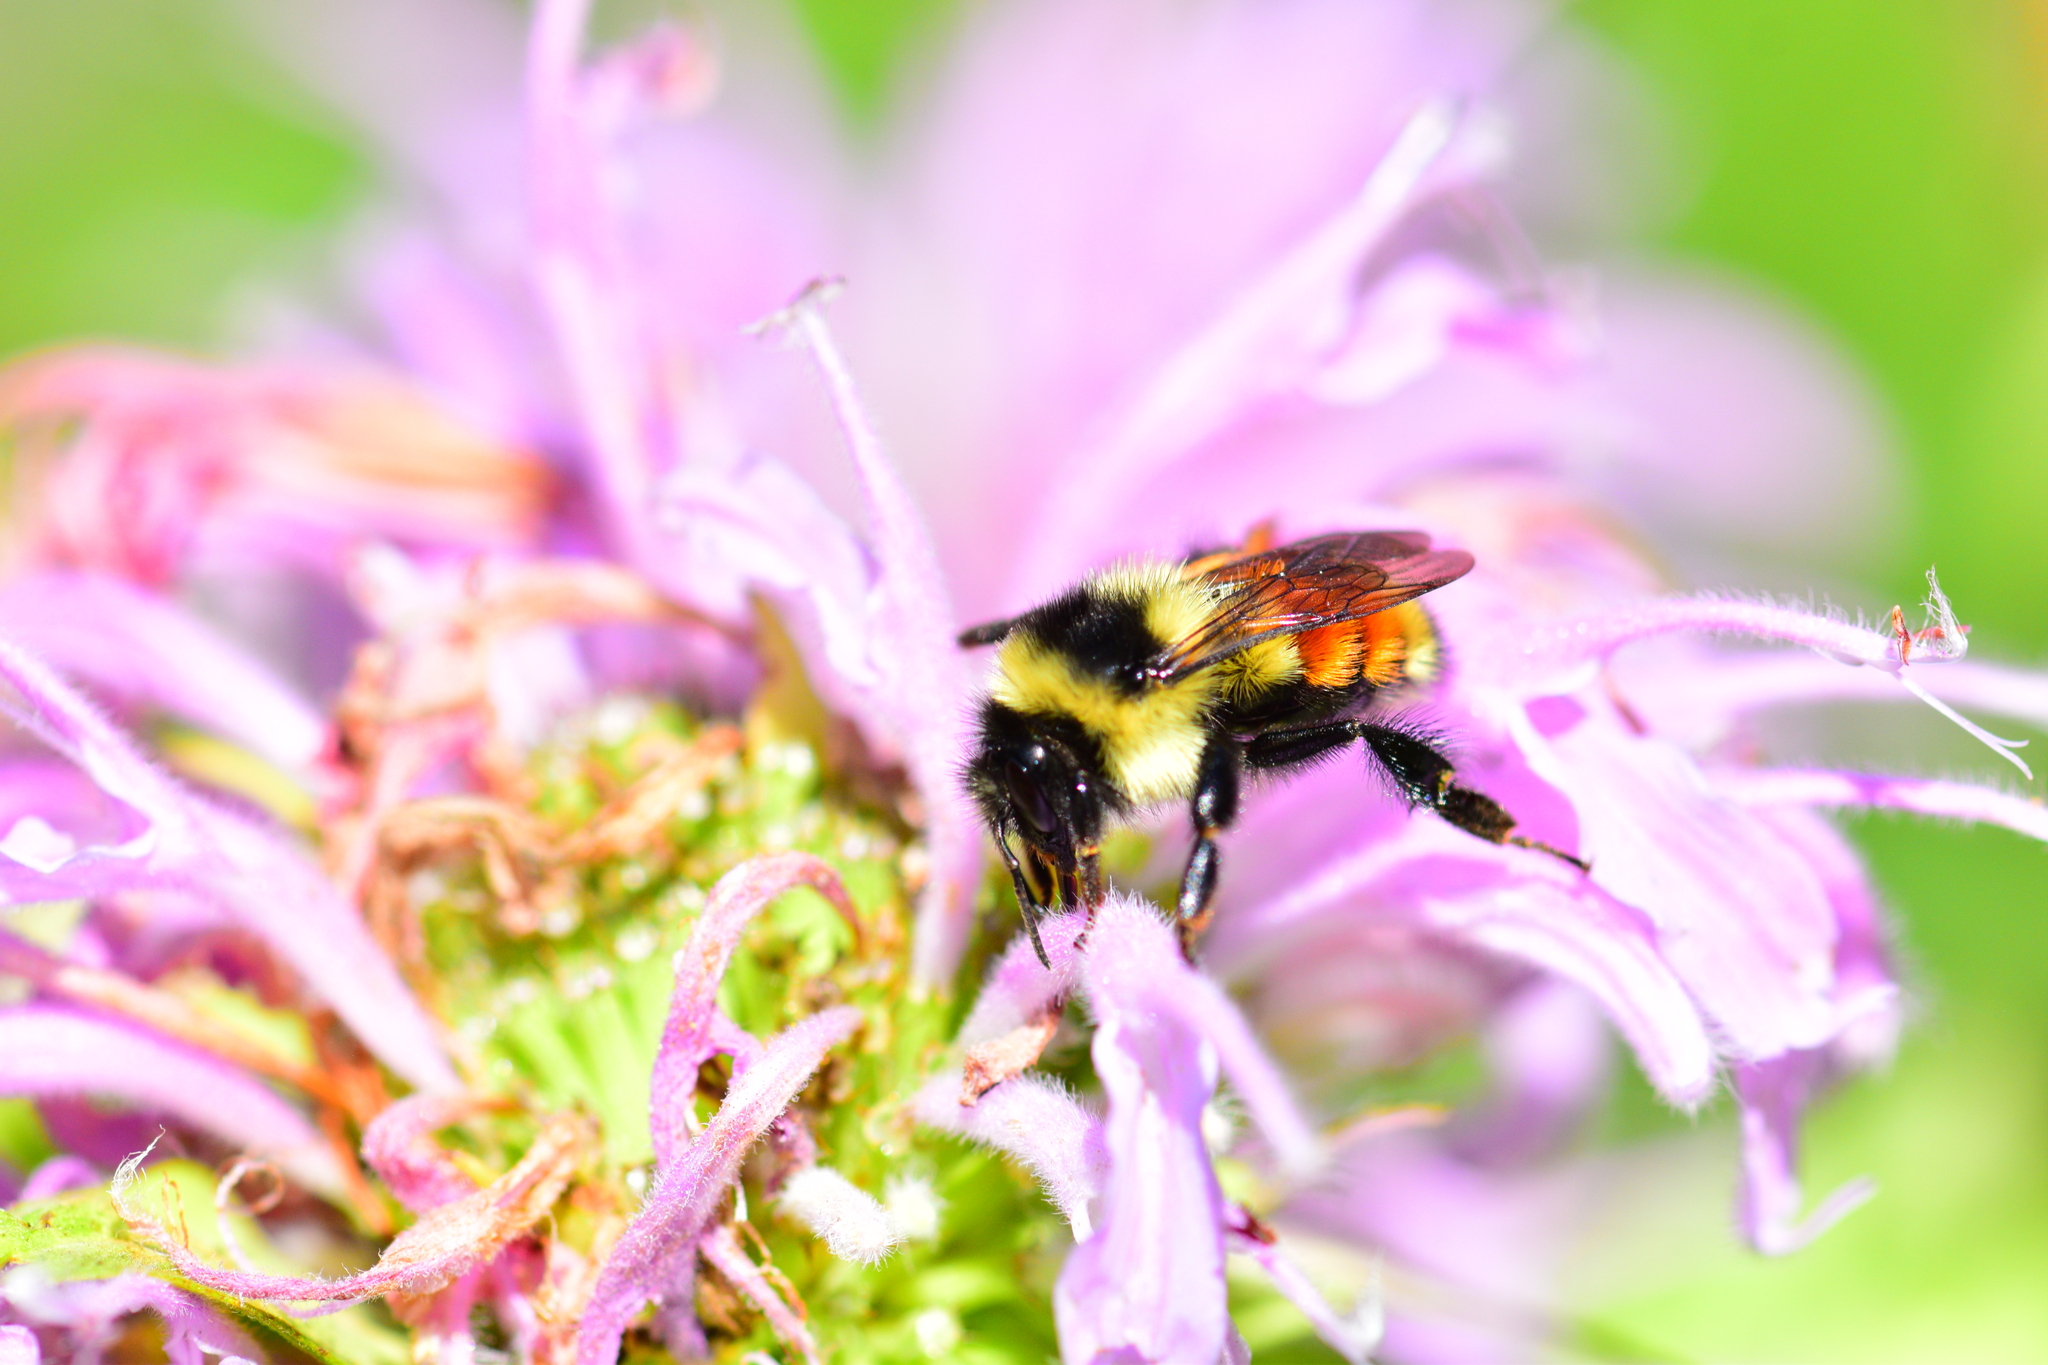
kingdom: Animalia
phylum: Arthropoda
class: Insecta
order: Hymenoptera
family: Apidae
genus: Bombus
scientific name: Bombus ternarius
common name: Tri-colored bumble bee
